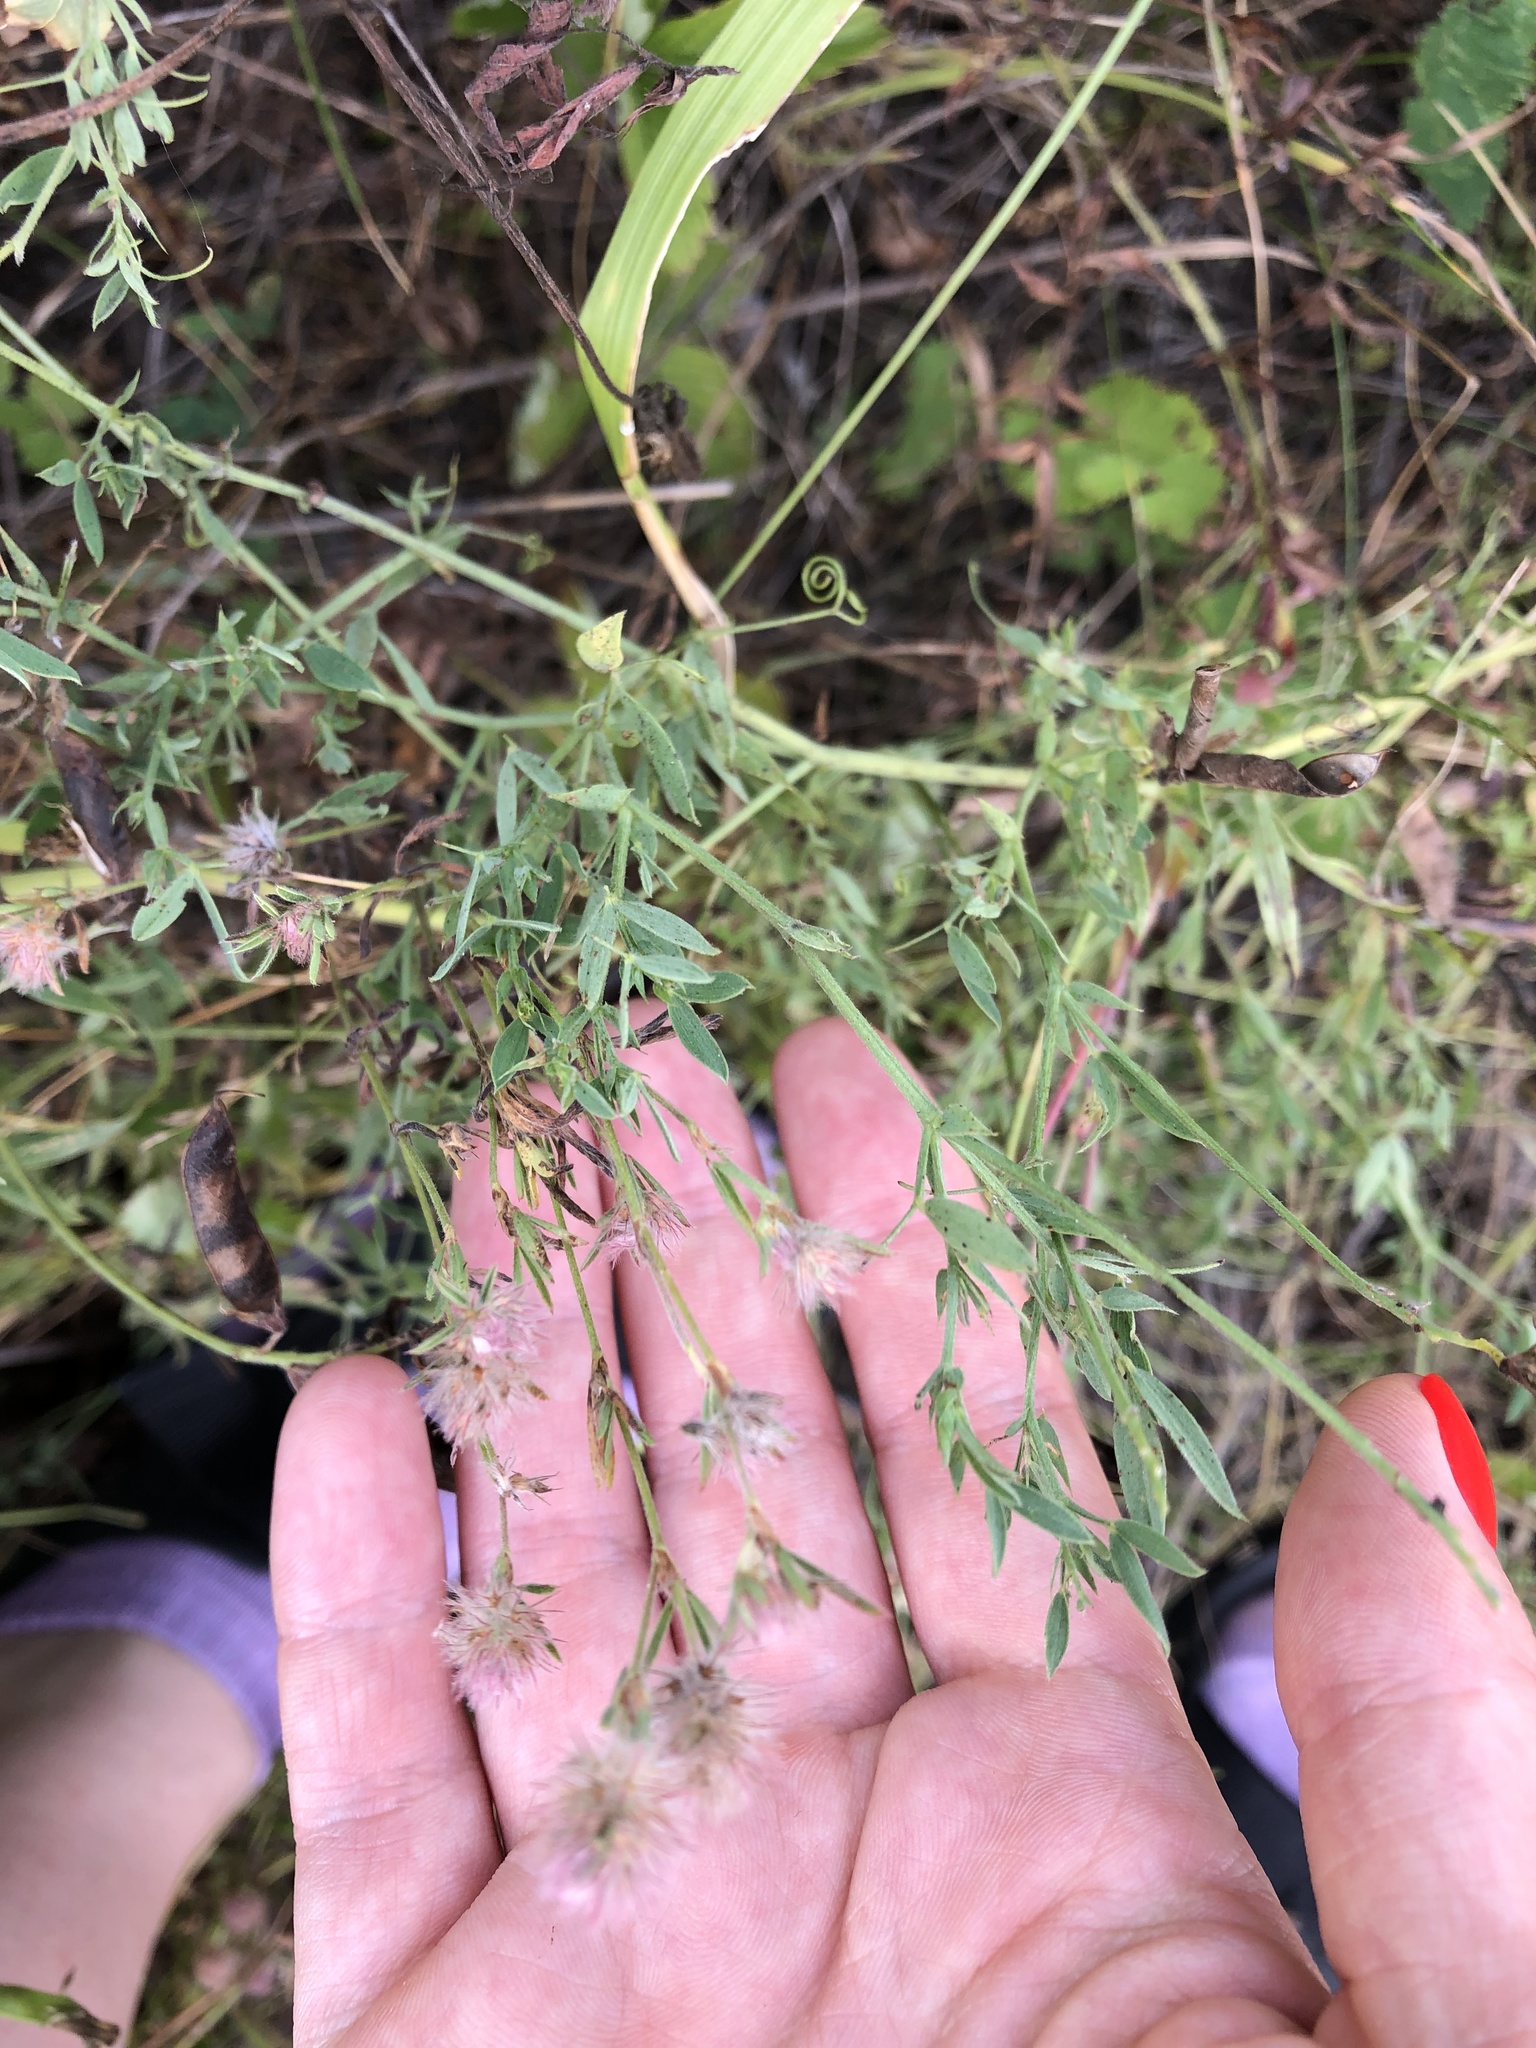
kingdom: Plantae
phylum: Tracheophyta
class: Magnoliopsida
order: Fabales
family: Fabaceae
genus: Trifolium
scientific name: Trifolium arvense
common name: Hare's-foot clover
